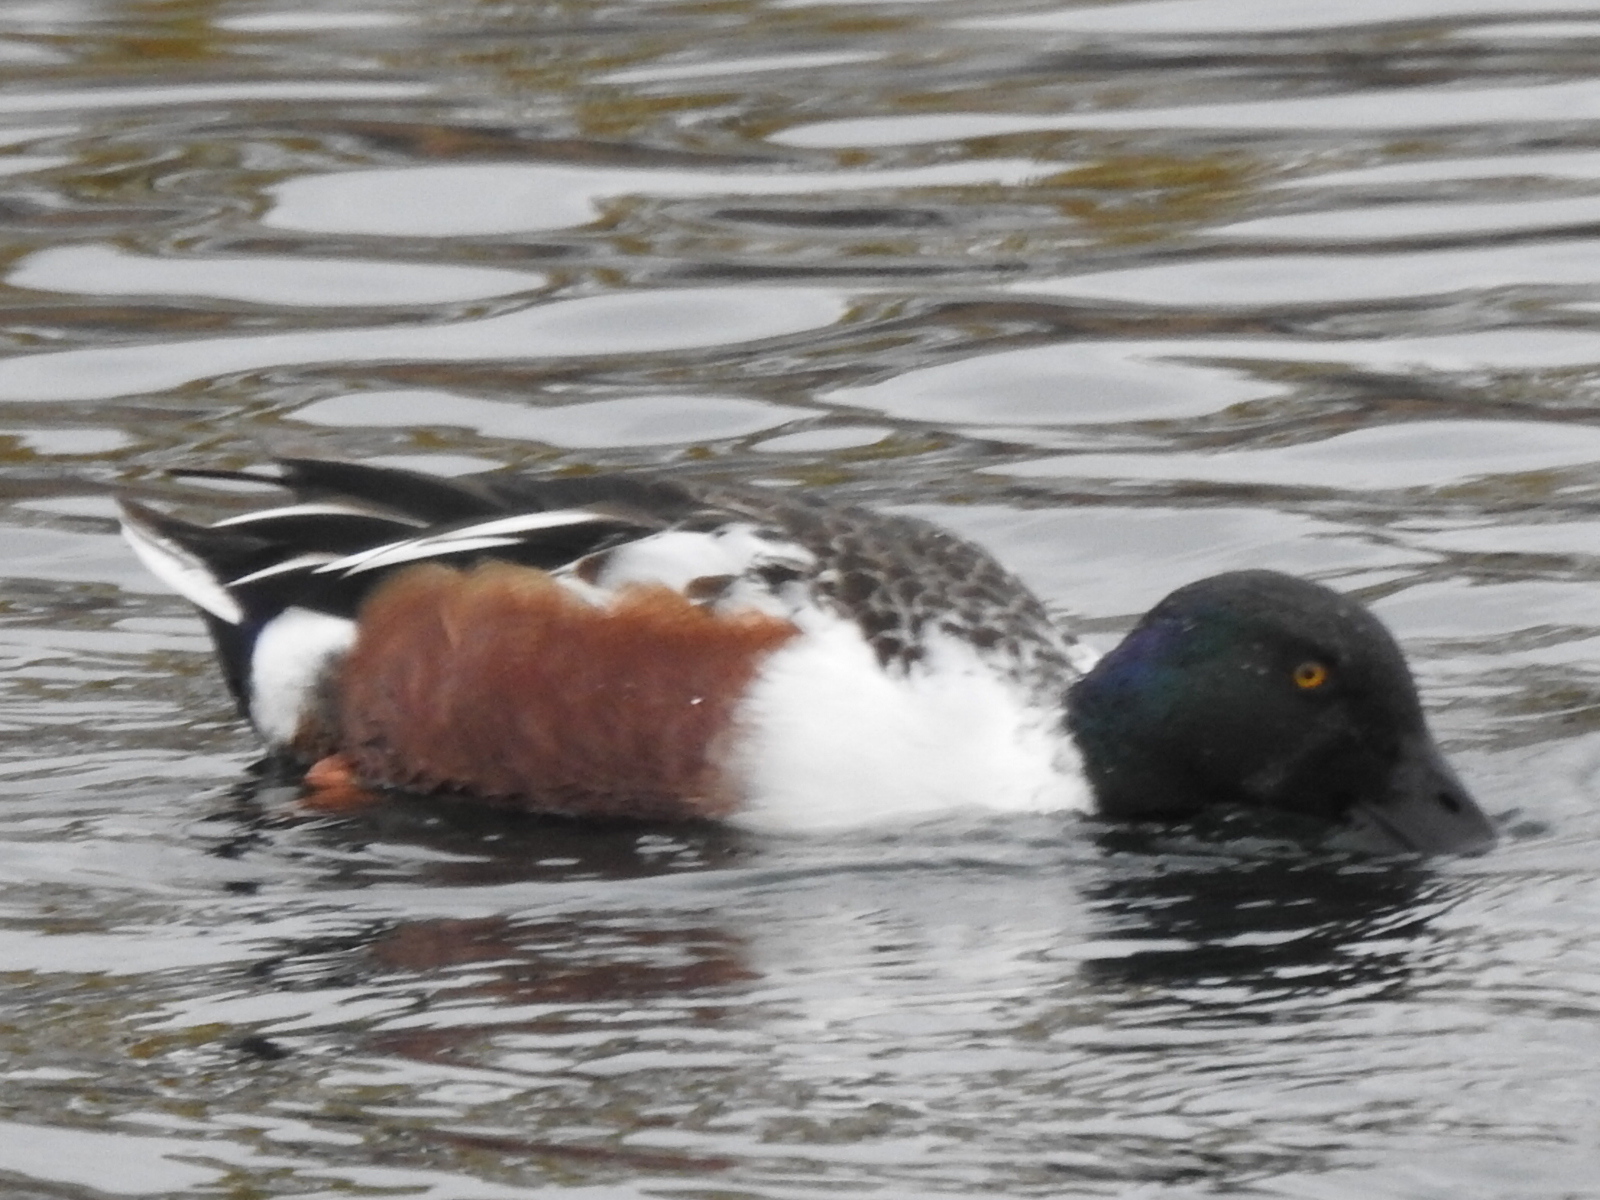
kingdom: Animalia
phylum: Chordata
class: Aves
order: Anseriformes
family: Anatidae
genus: Spatula
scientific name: Spatula clypeata
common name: Northern shoveler
